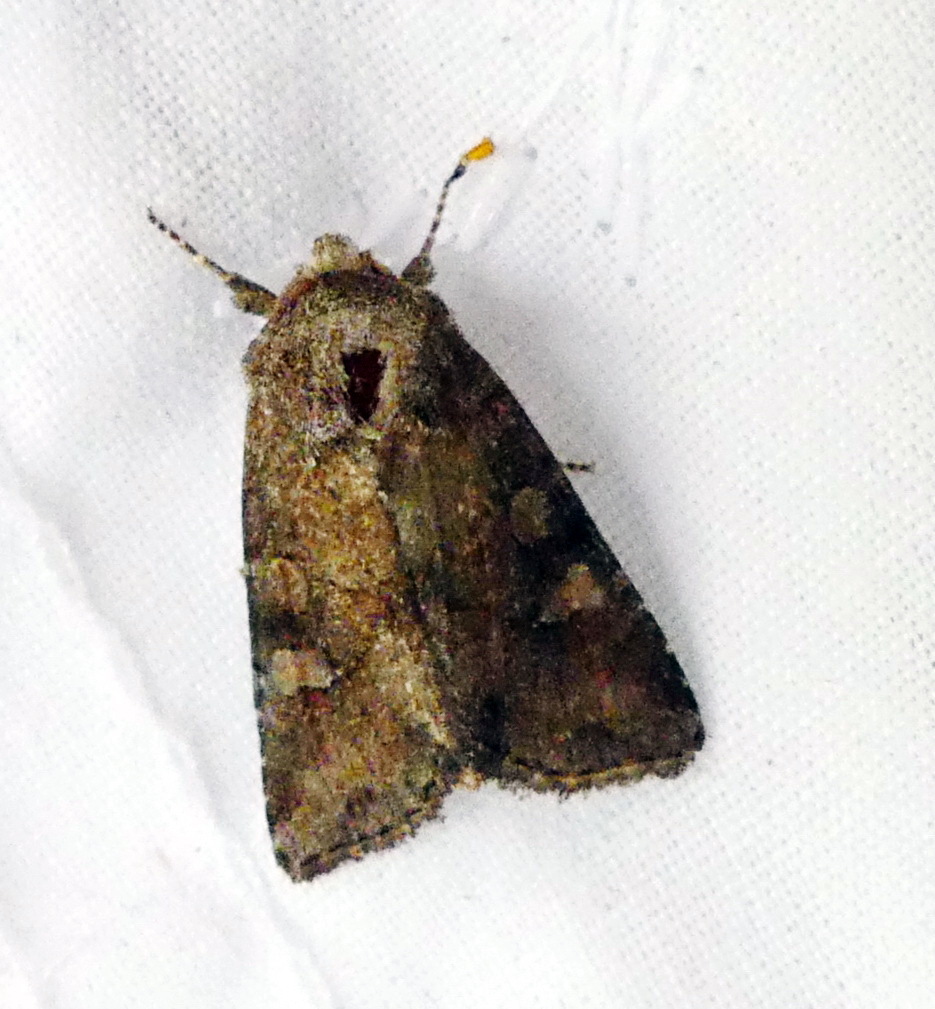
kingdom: Animalia
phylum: Arthropoda
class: Insecta
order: Lepidoptera
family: Noctuidae
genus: Lacinipolia
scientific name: Lacinipolia meditata
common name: Thinker moth
